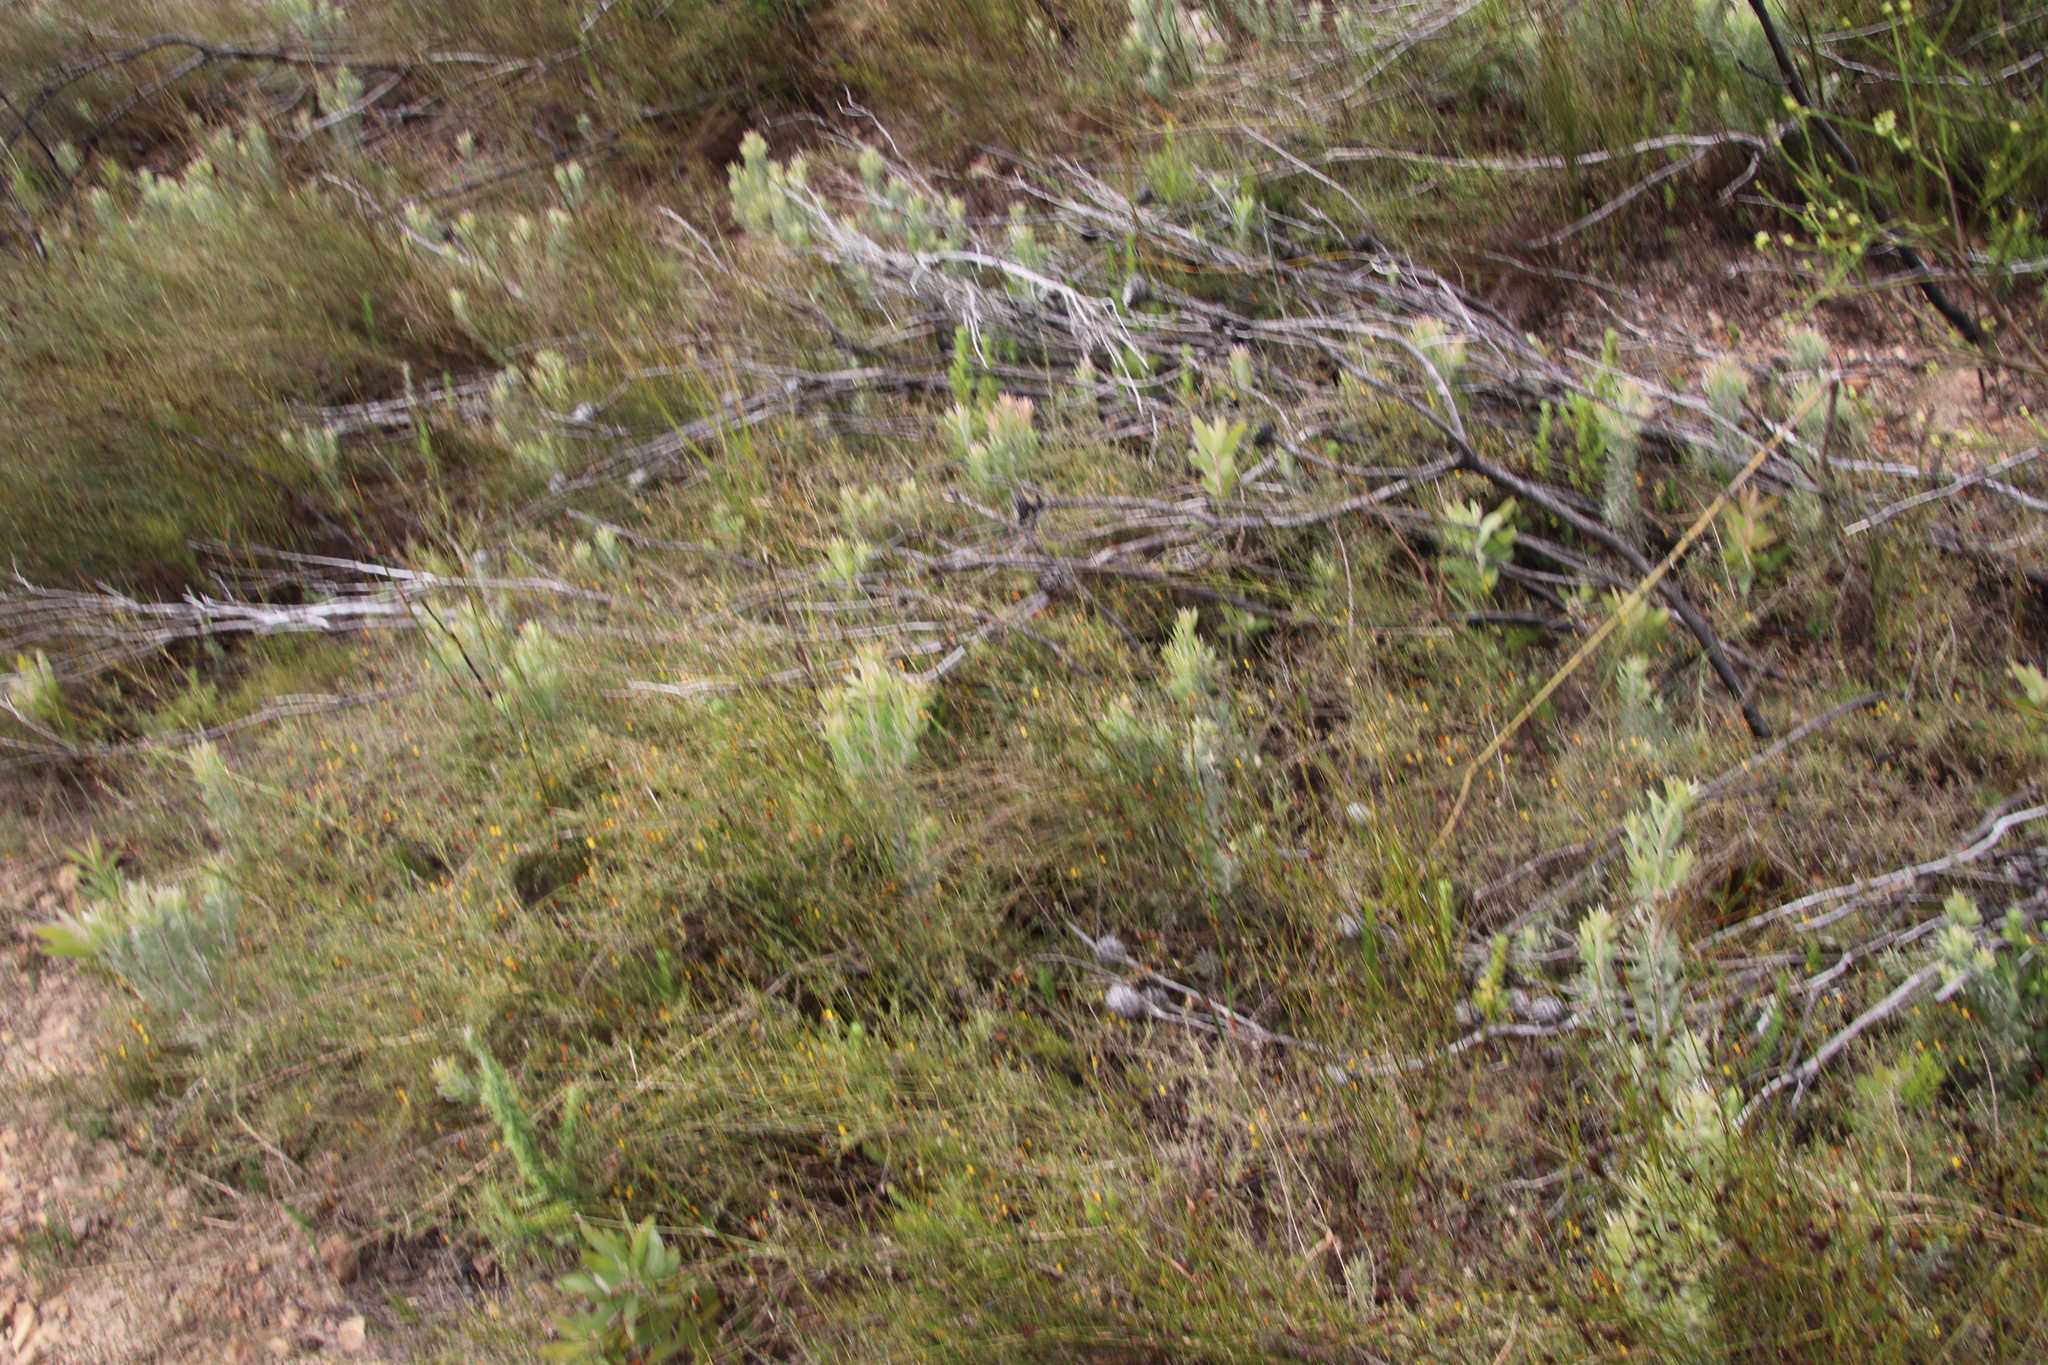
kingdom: Plantae
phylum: Tracheophyta
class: Magnoliopsida
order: Proteales
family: Proteaceae
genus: Leucadendron
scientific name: Leucadendron rubrum
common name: Spinning top
